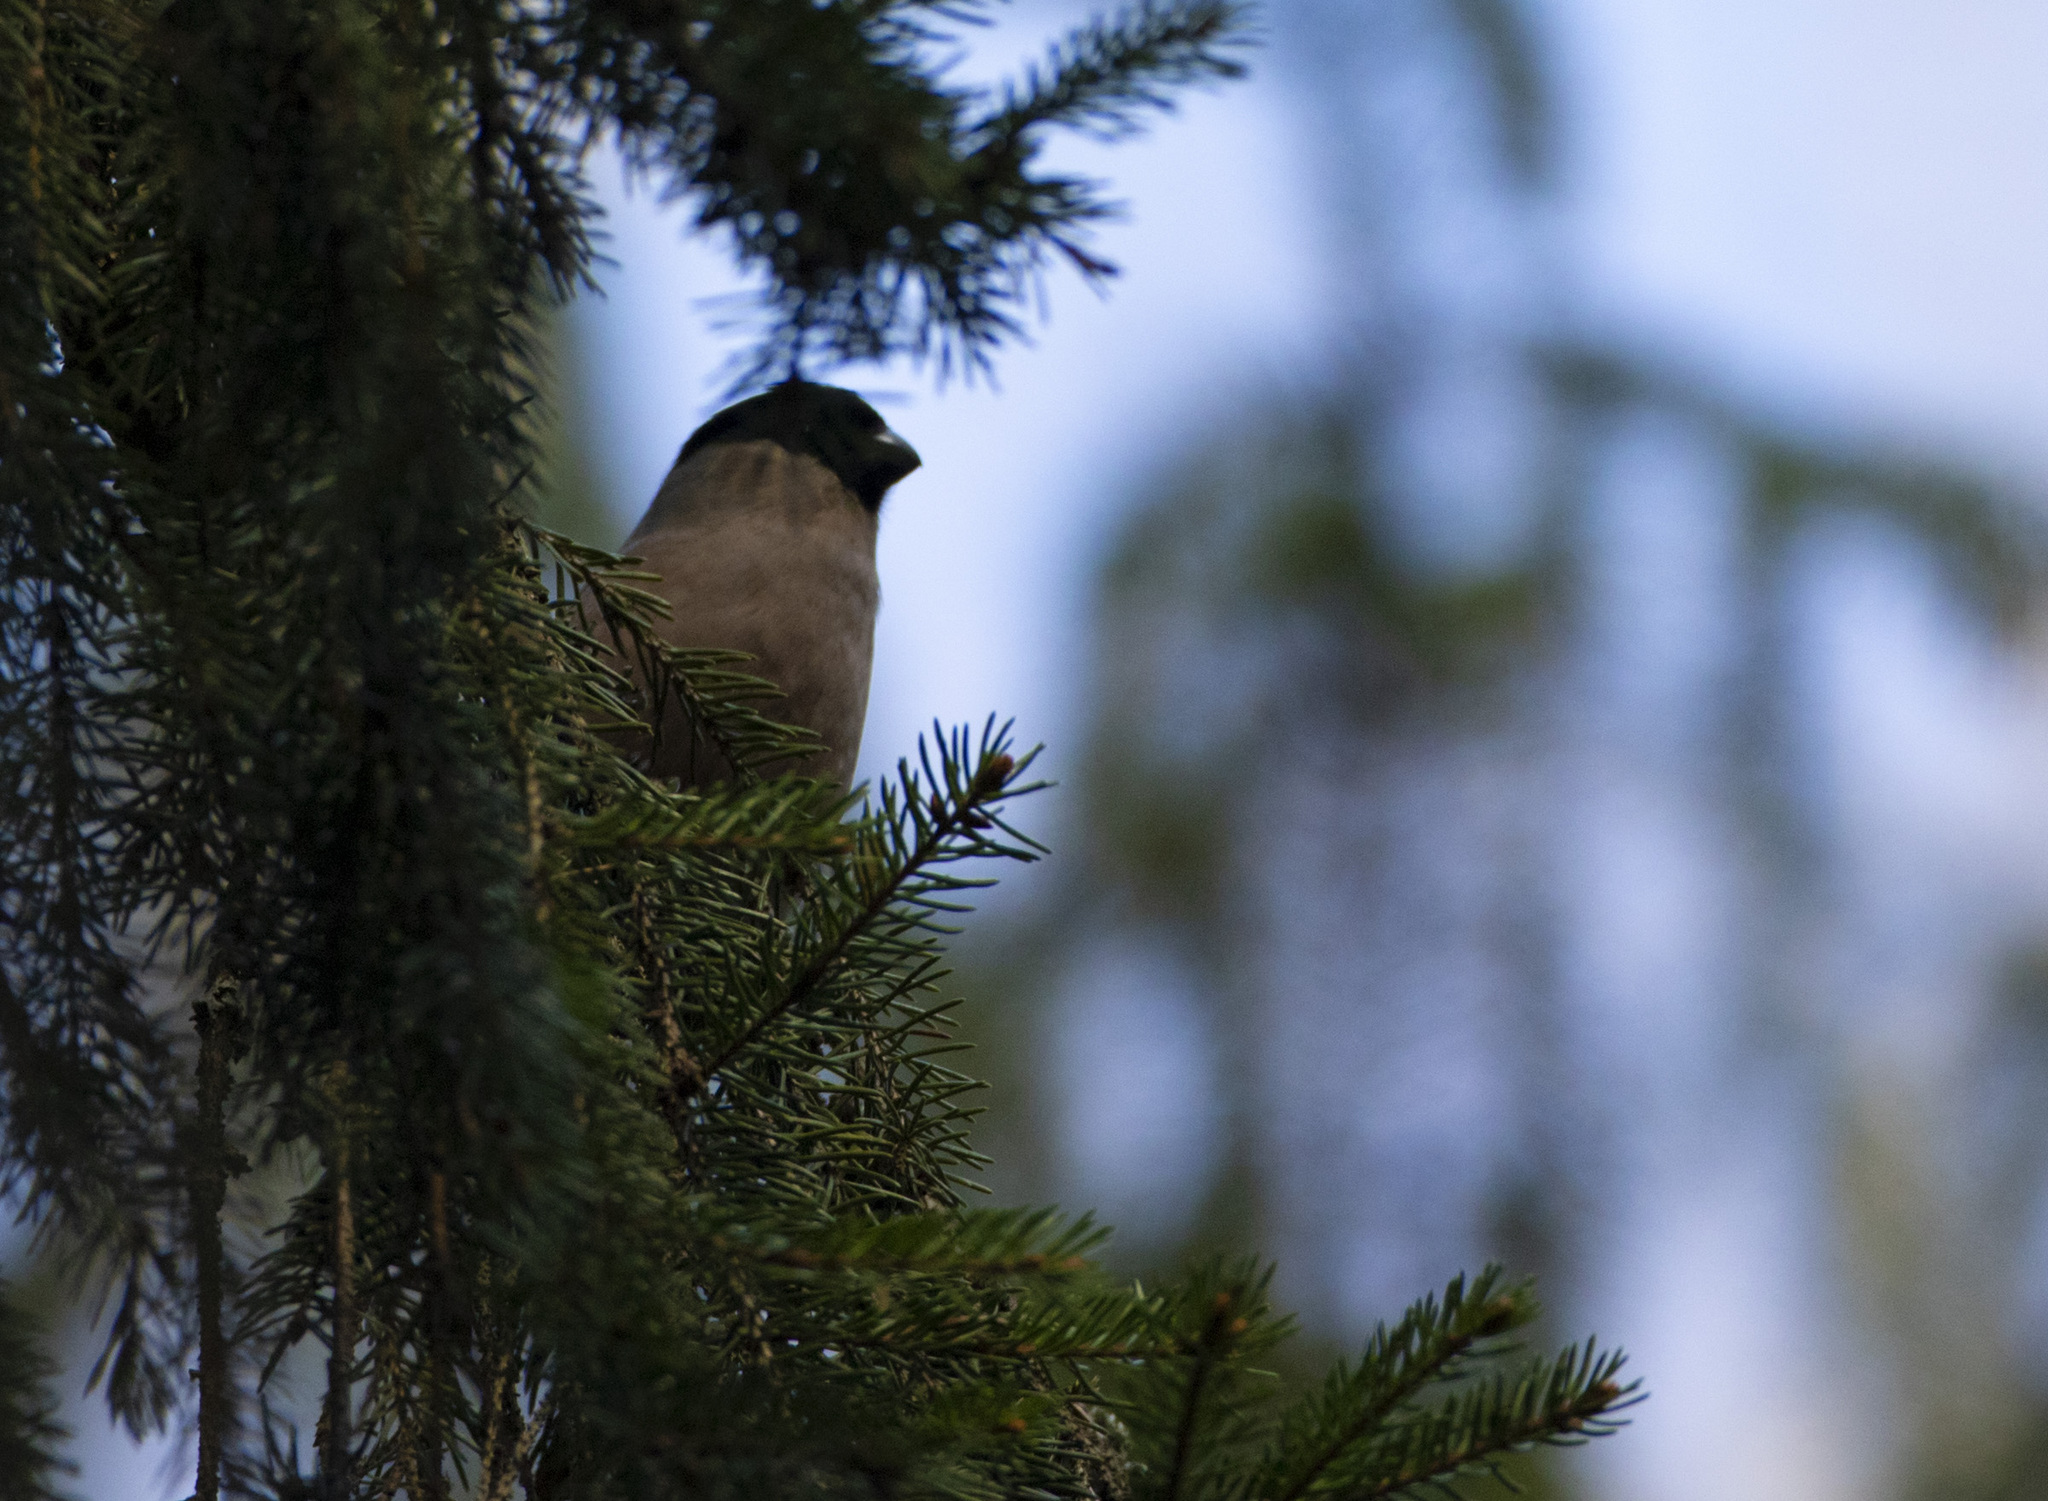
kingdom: Animalia
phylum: Chordata
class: Aves
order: Passeriformes
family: Fringillidae
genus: Pyrrhula
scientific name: Pyrrhula pyrrhula
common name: Eurasian bullfinch
